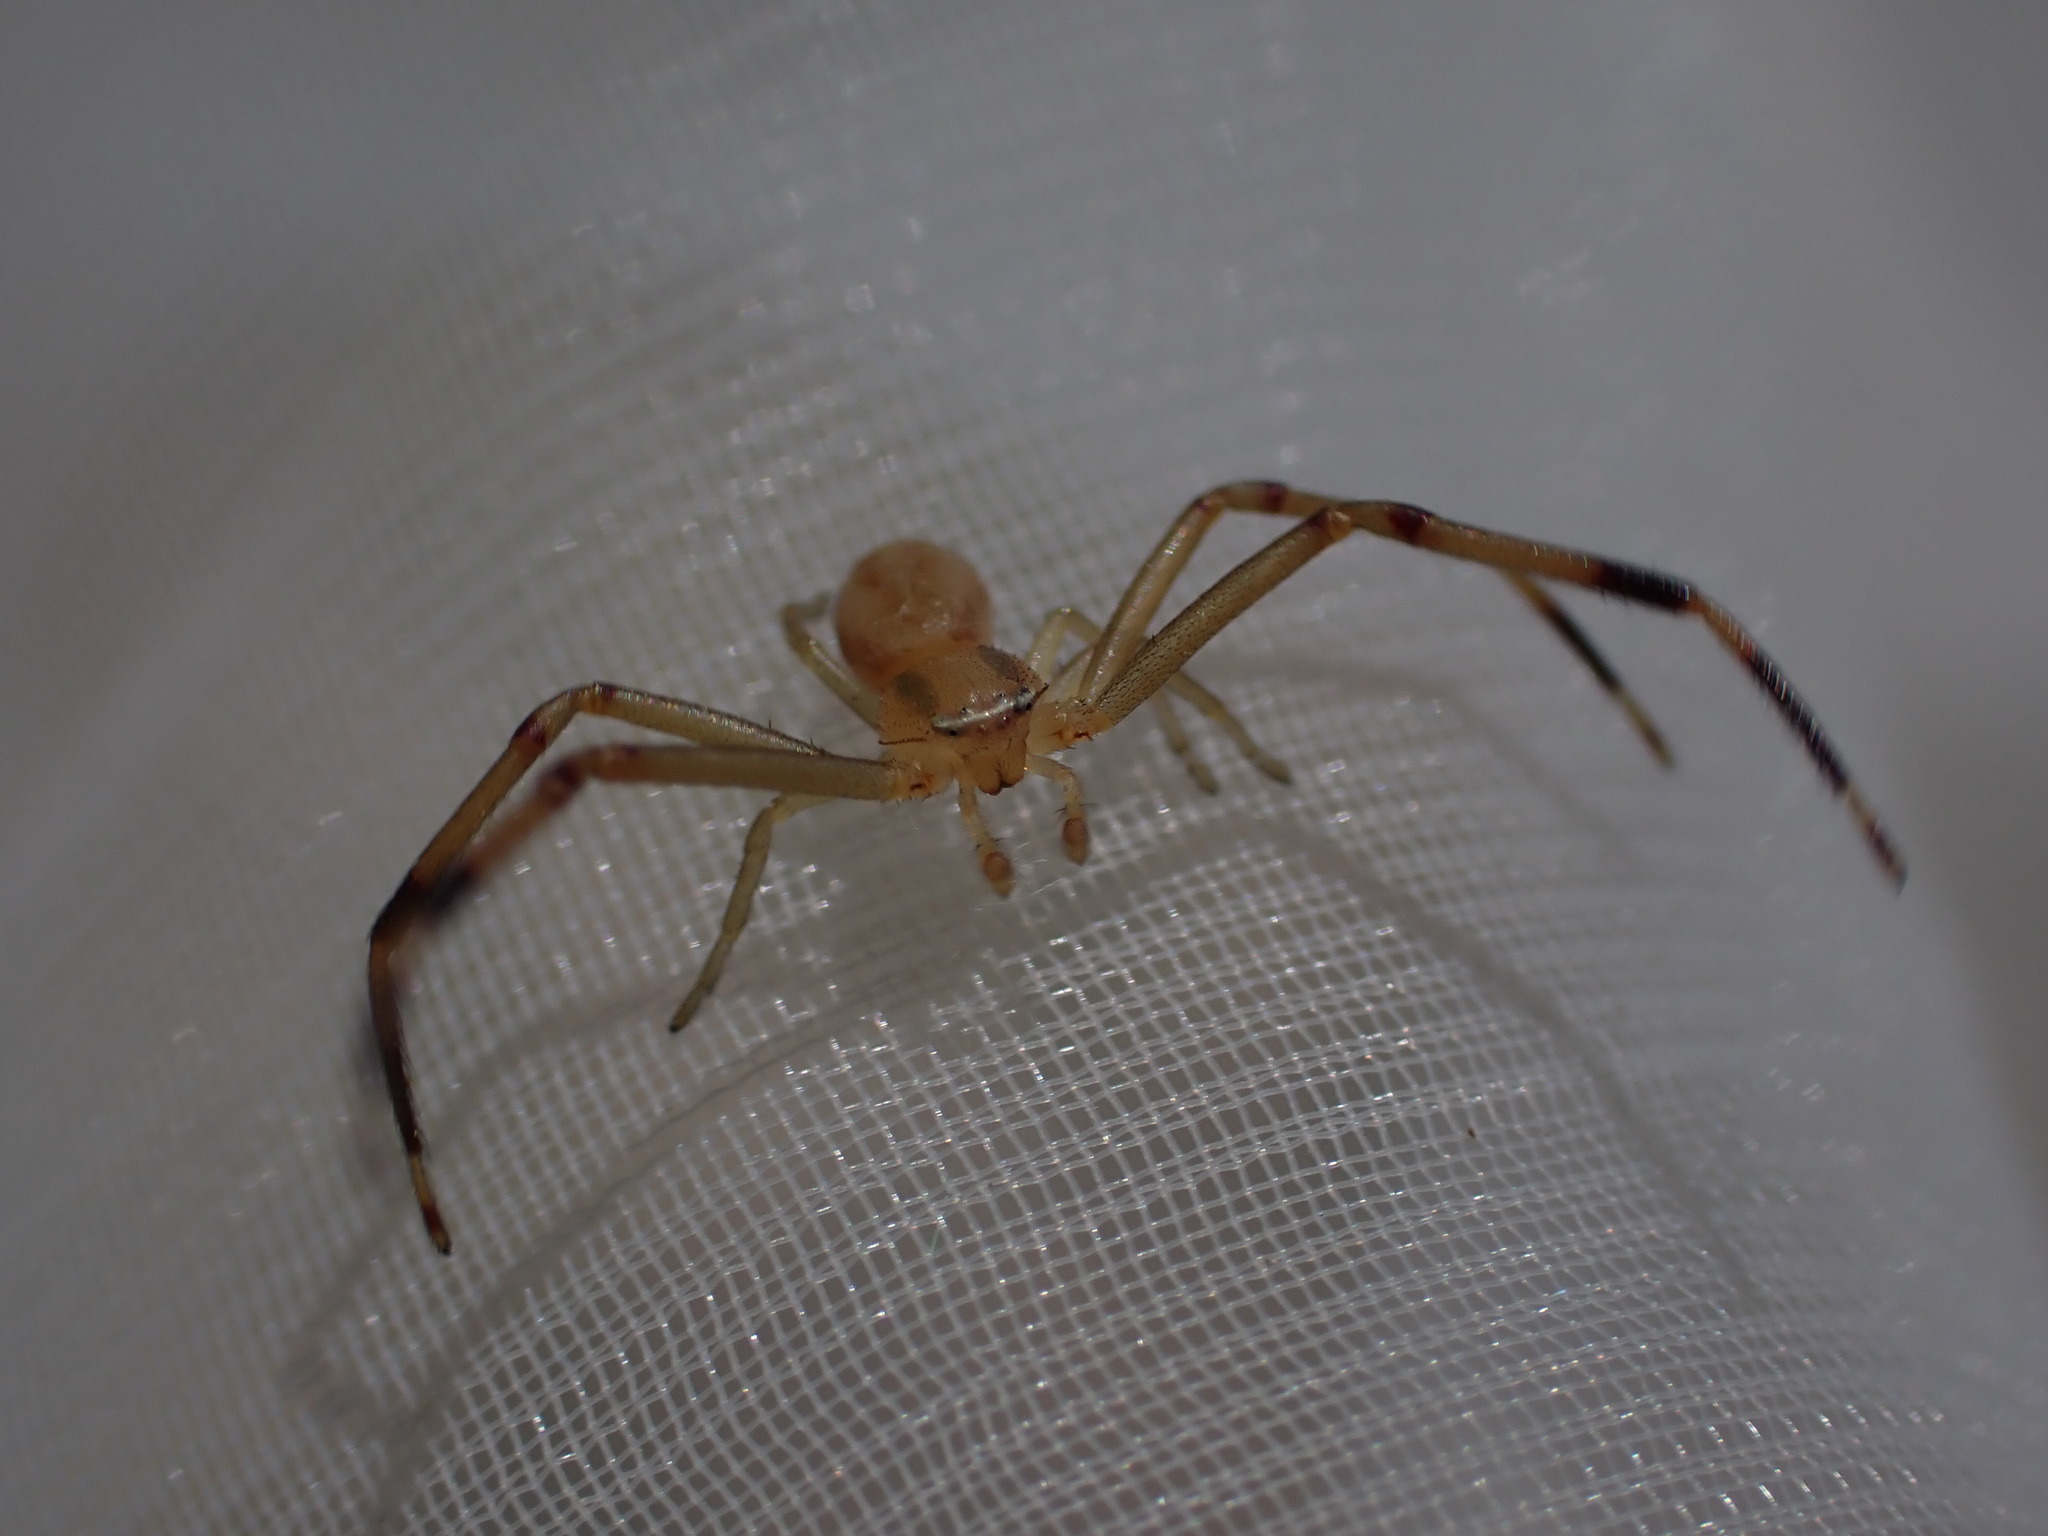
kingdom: Animalia
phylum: Arthropoda
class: Arachnida
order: Araneae
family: Thomisidae
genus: Runcinia
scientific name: Runcinia grammica
